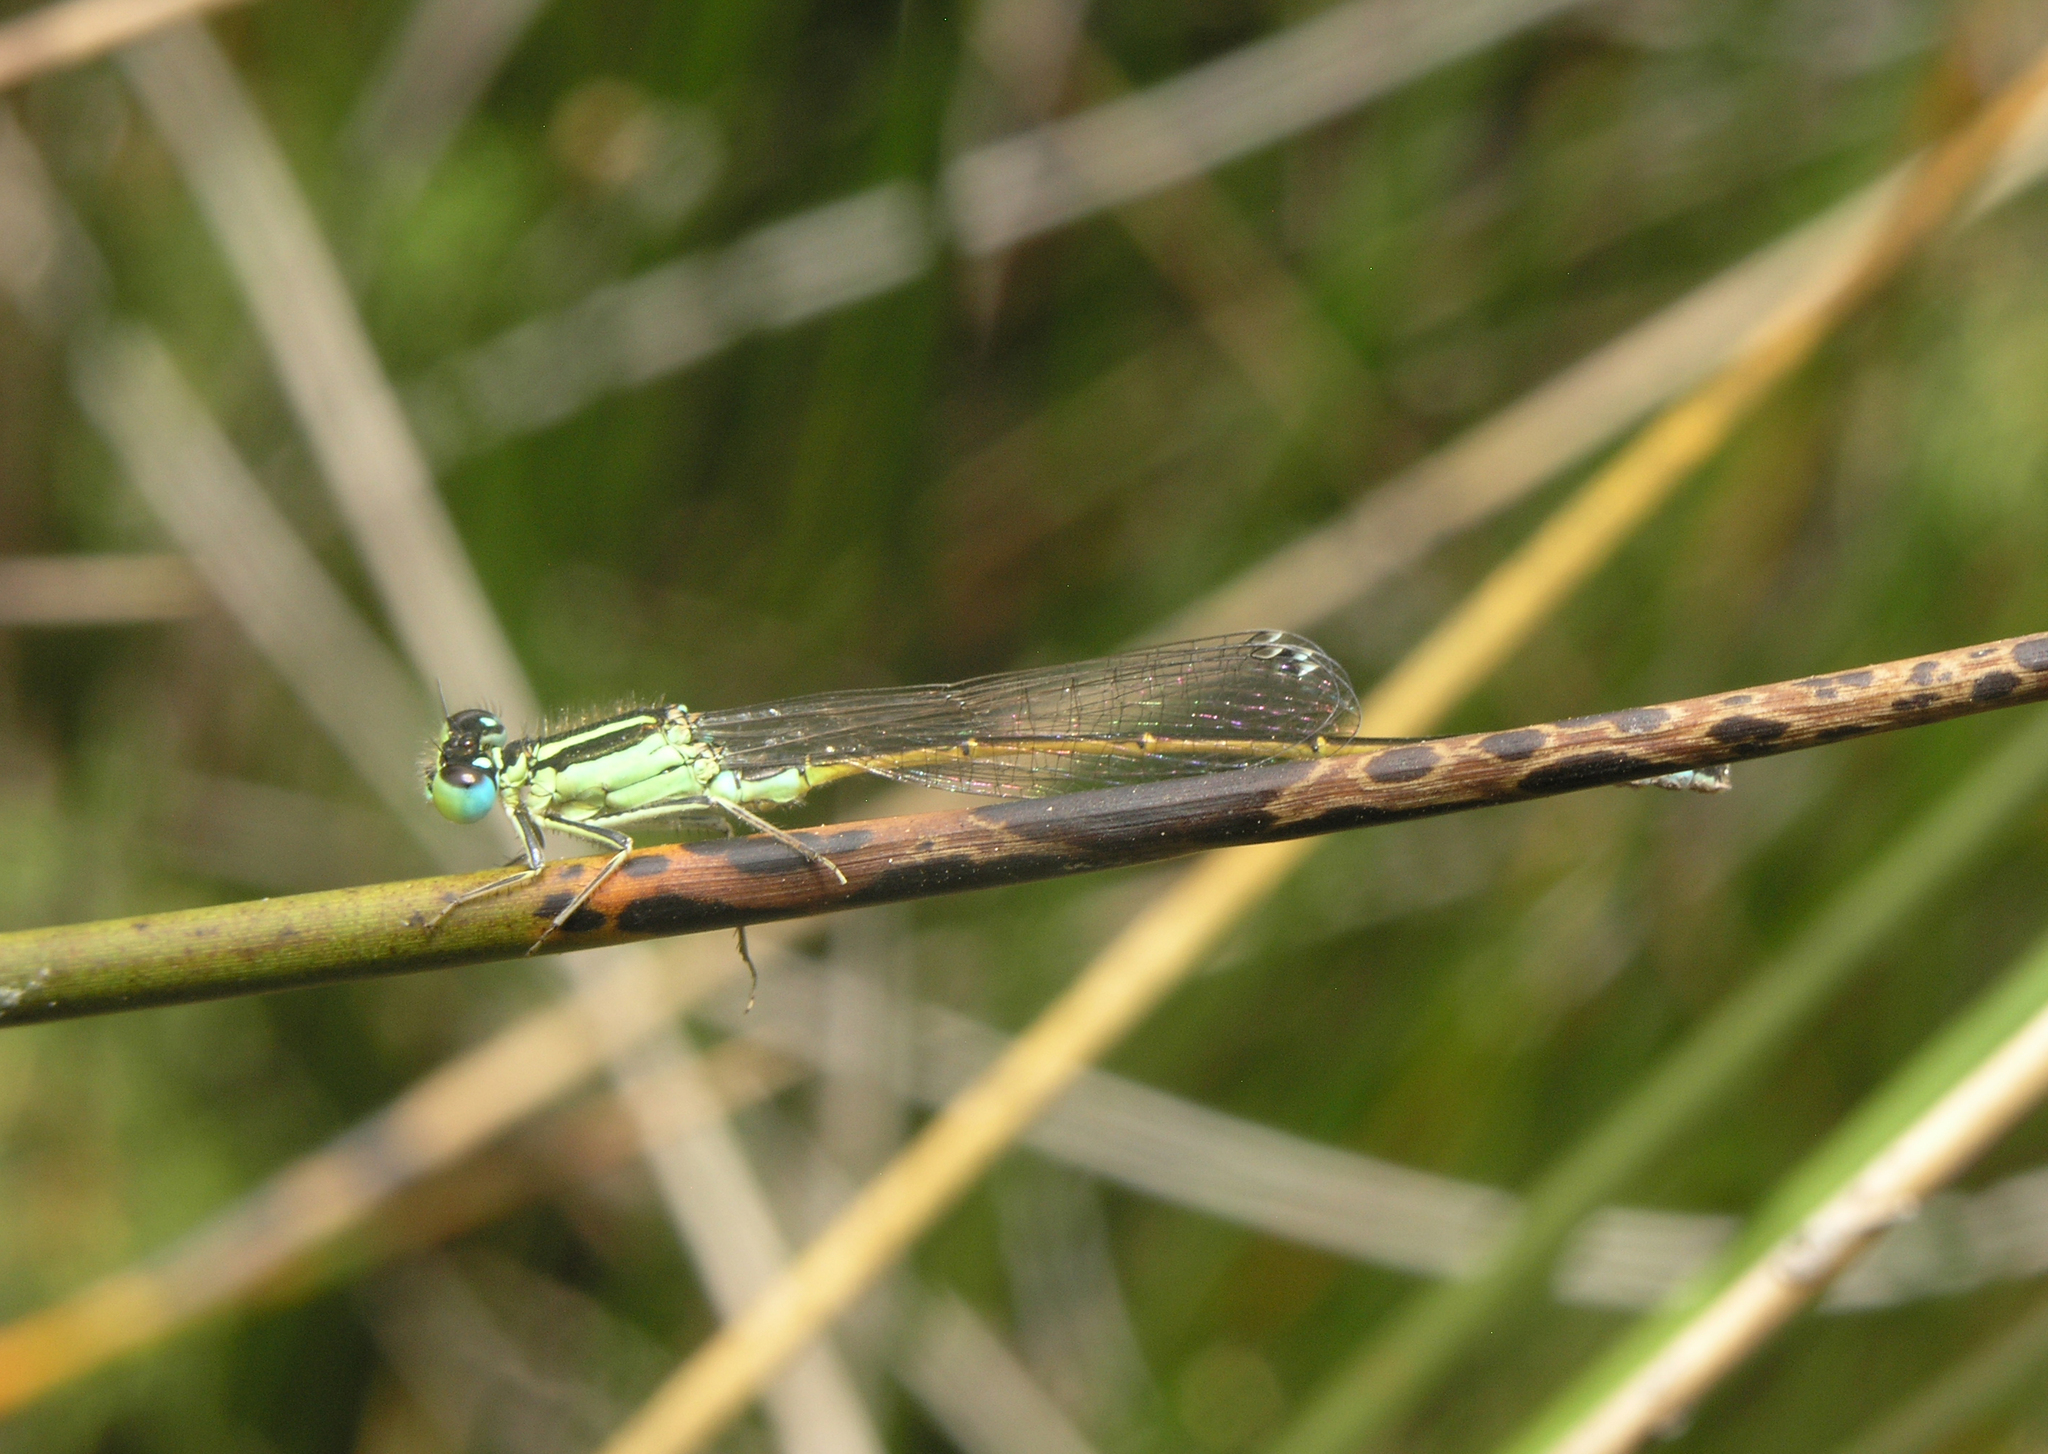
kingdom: Animalia
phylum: Arthropoda
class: Insecta
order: Odonata
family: Coenagrionidae
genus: Ischnura
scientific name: Ischnura graellsii
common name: Iberian bluetail
